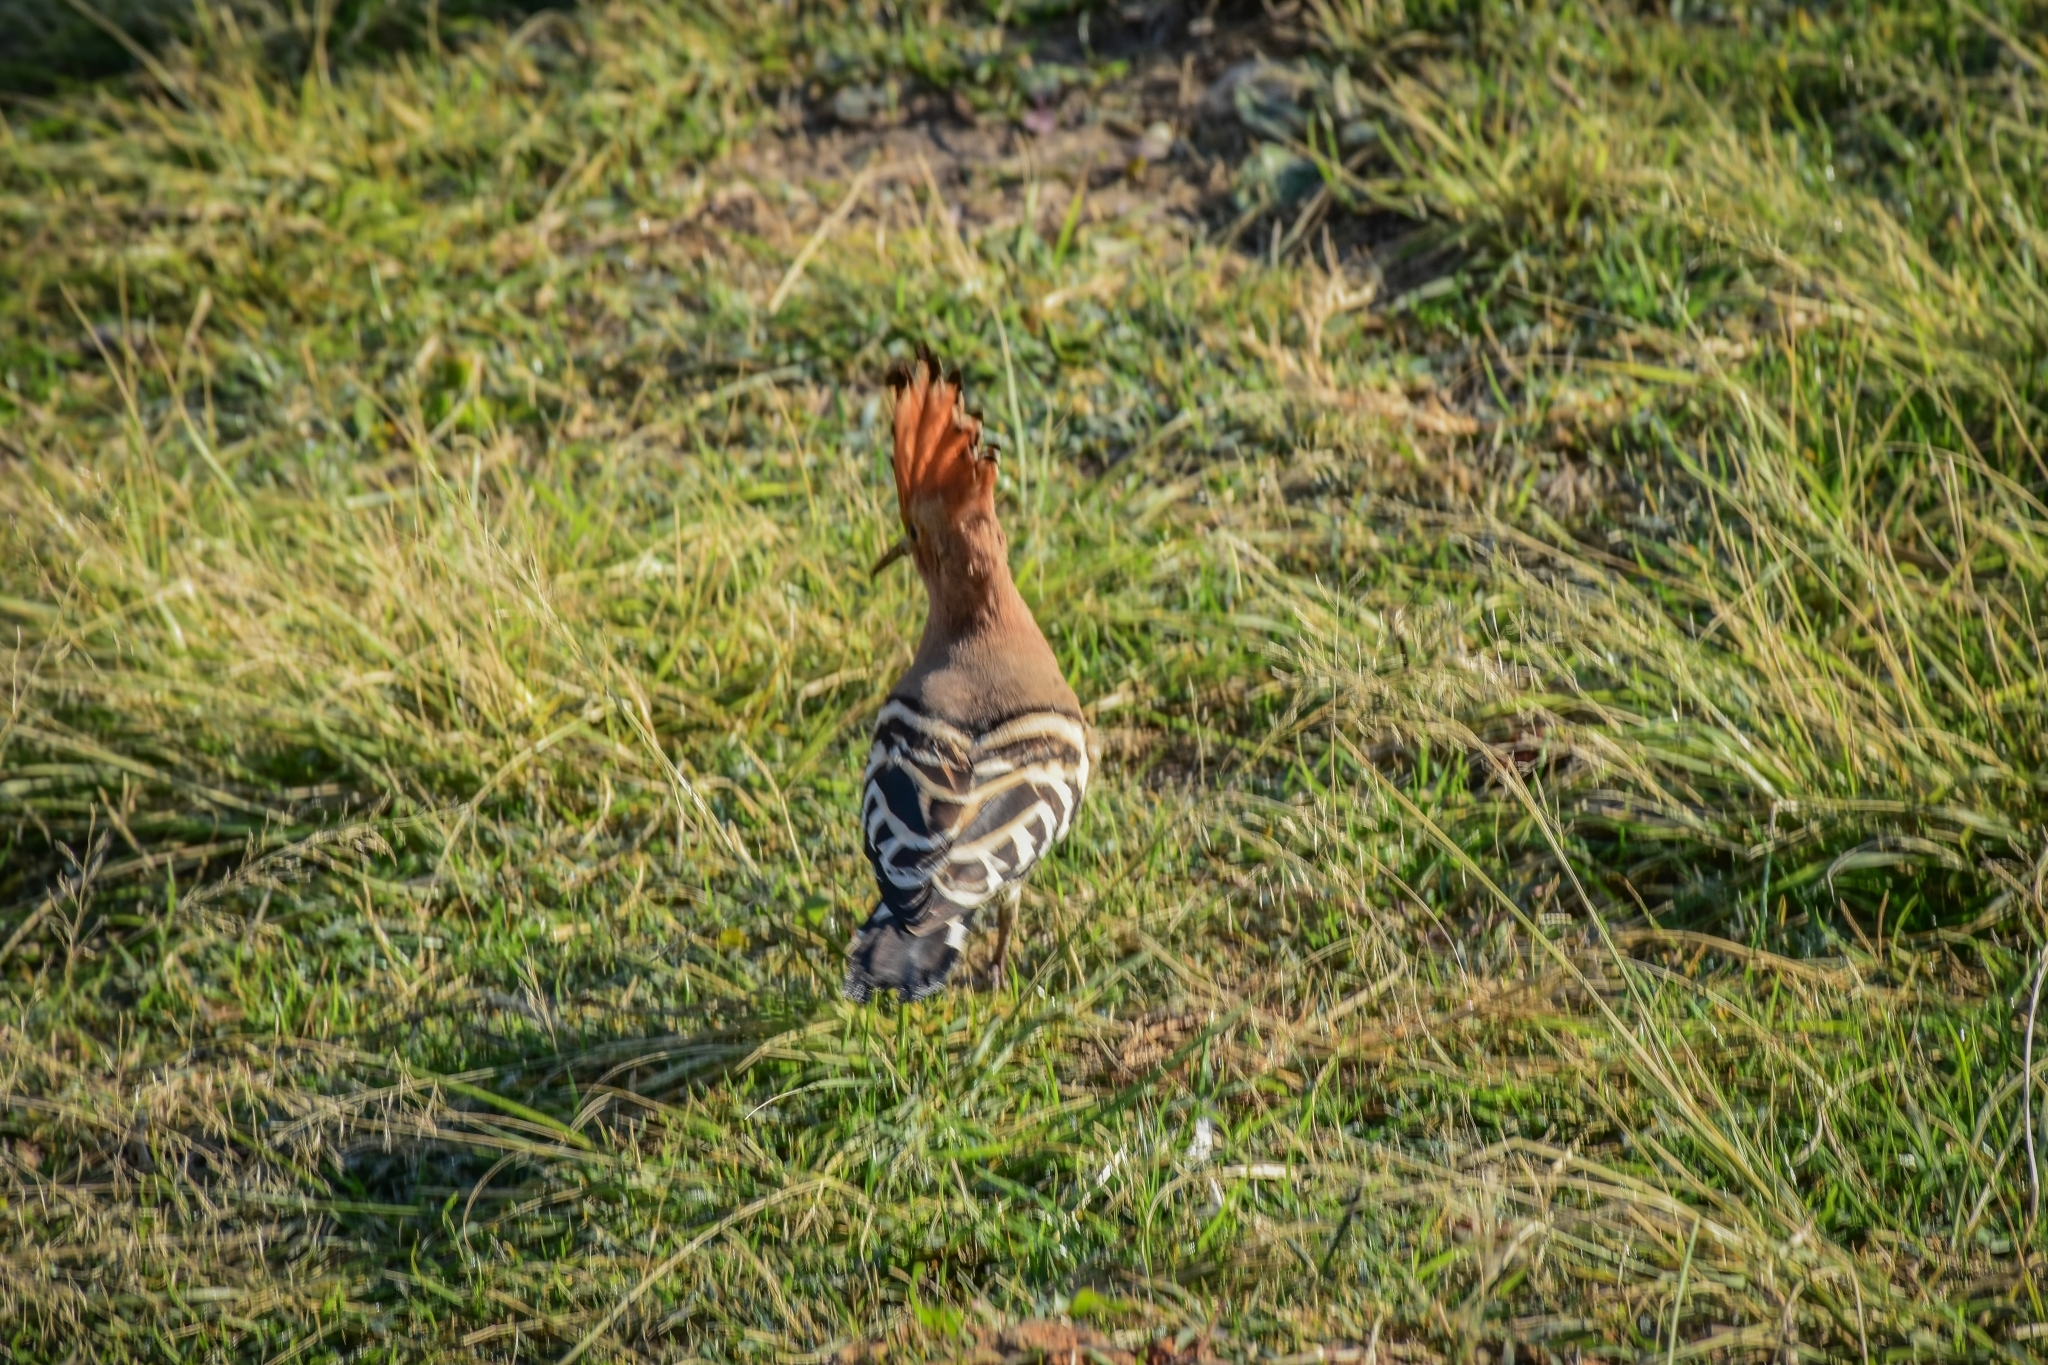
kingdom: Animalia
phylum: Chordata
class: Aves
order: Bucerotiformes
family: Upupidae
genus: Upupa
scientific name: Upupa epops
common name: Eurasian hoopoe
